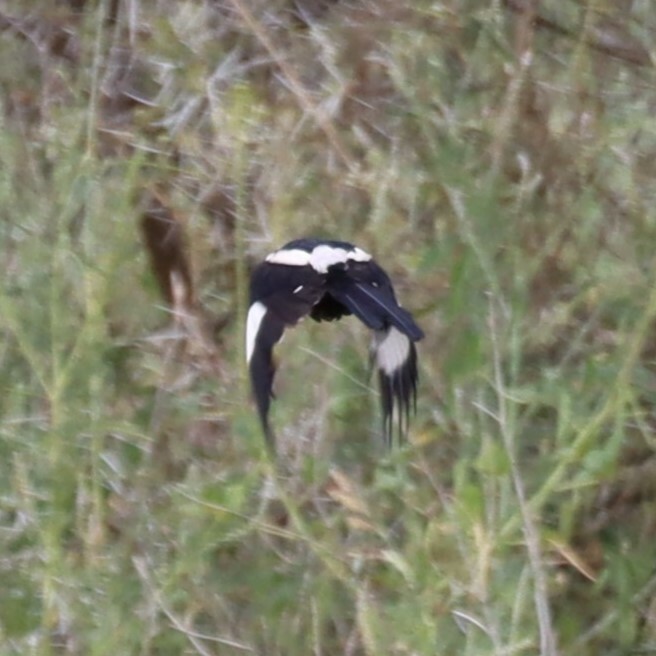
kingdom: Animalia
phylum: Chordata
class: Aves
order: Passeriformes
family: Laniidae
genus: Urolestes
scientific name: Urolestes melanoleucus
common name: Magpie shrike
